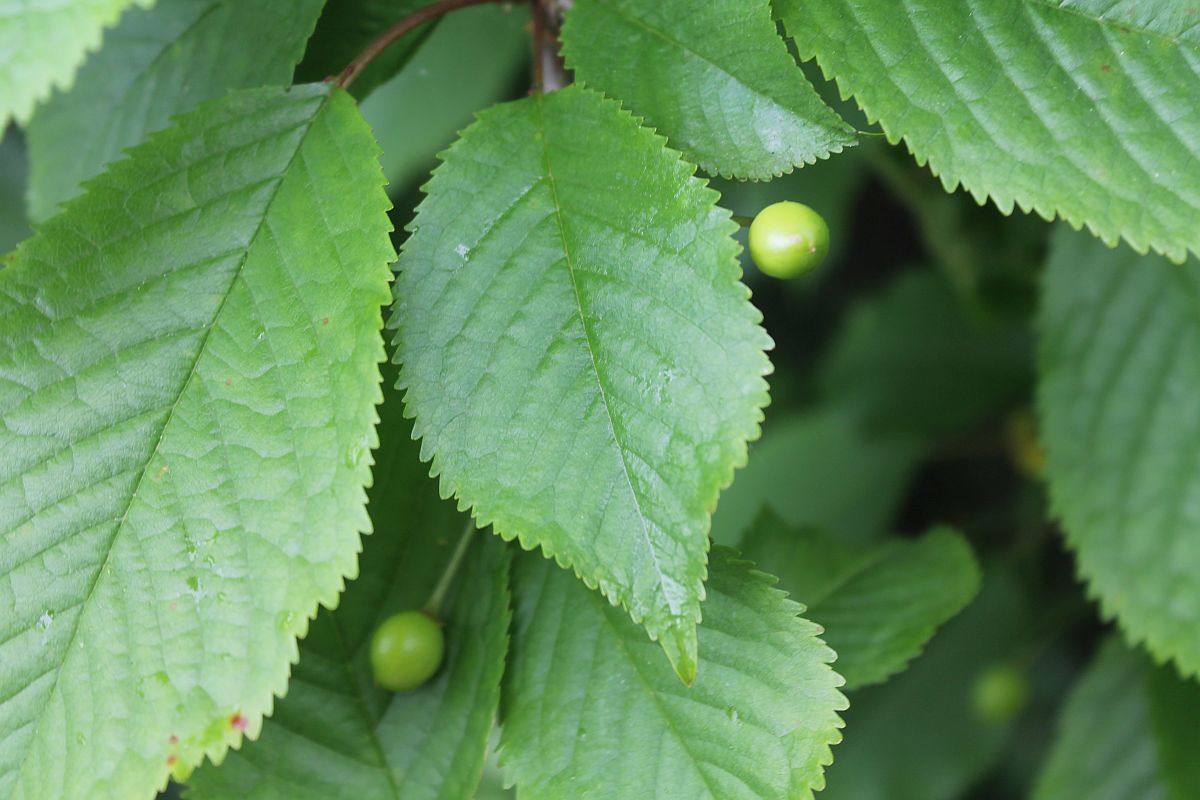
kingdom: Plantae
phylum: Tracheophyta
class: Magnoliopsida
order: Rosales
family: Rosaceae
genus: Prunus
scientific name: Prunus avium
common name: Sweet cherry
